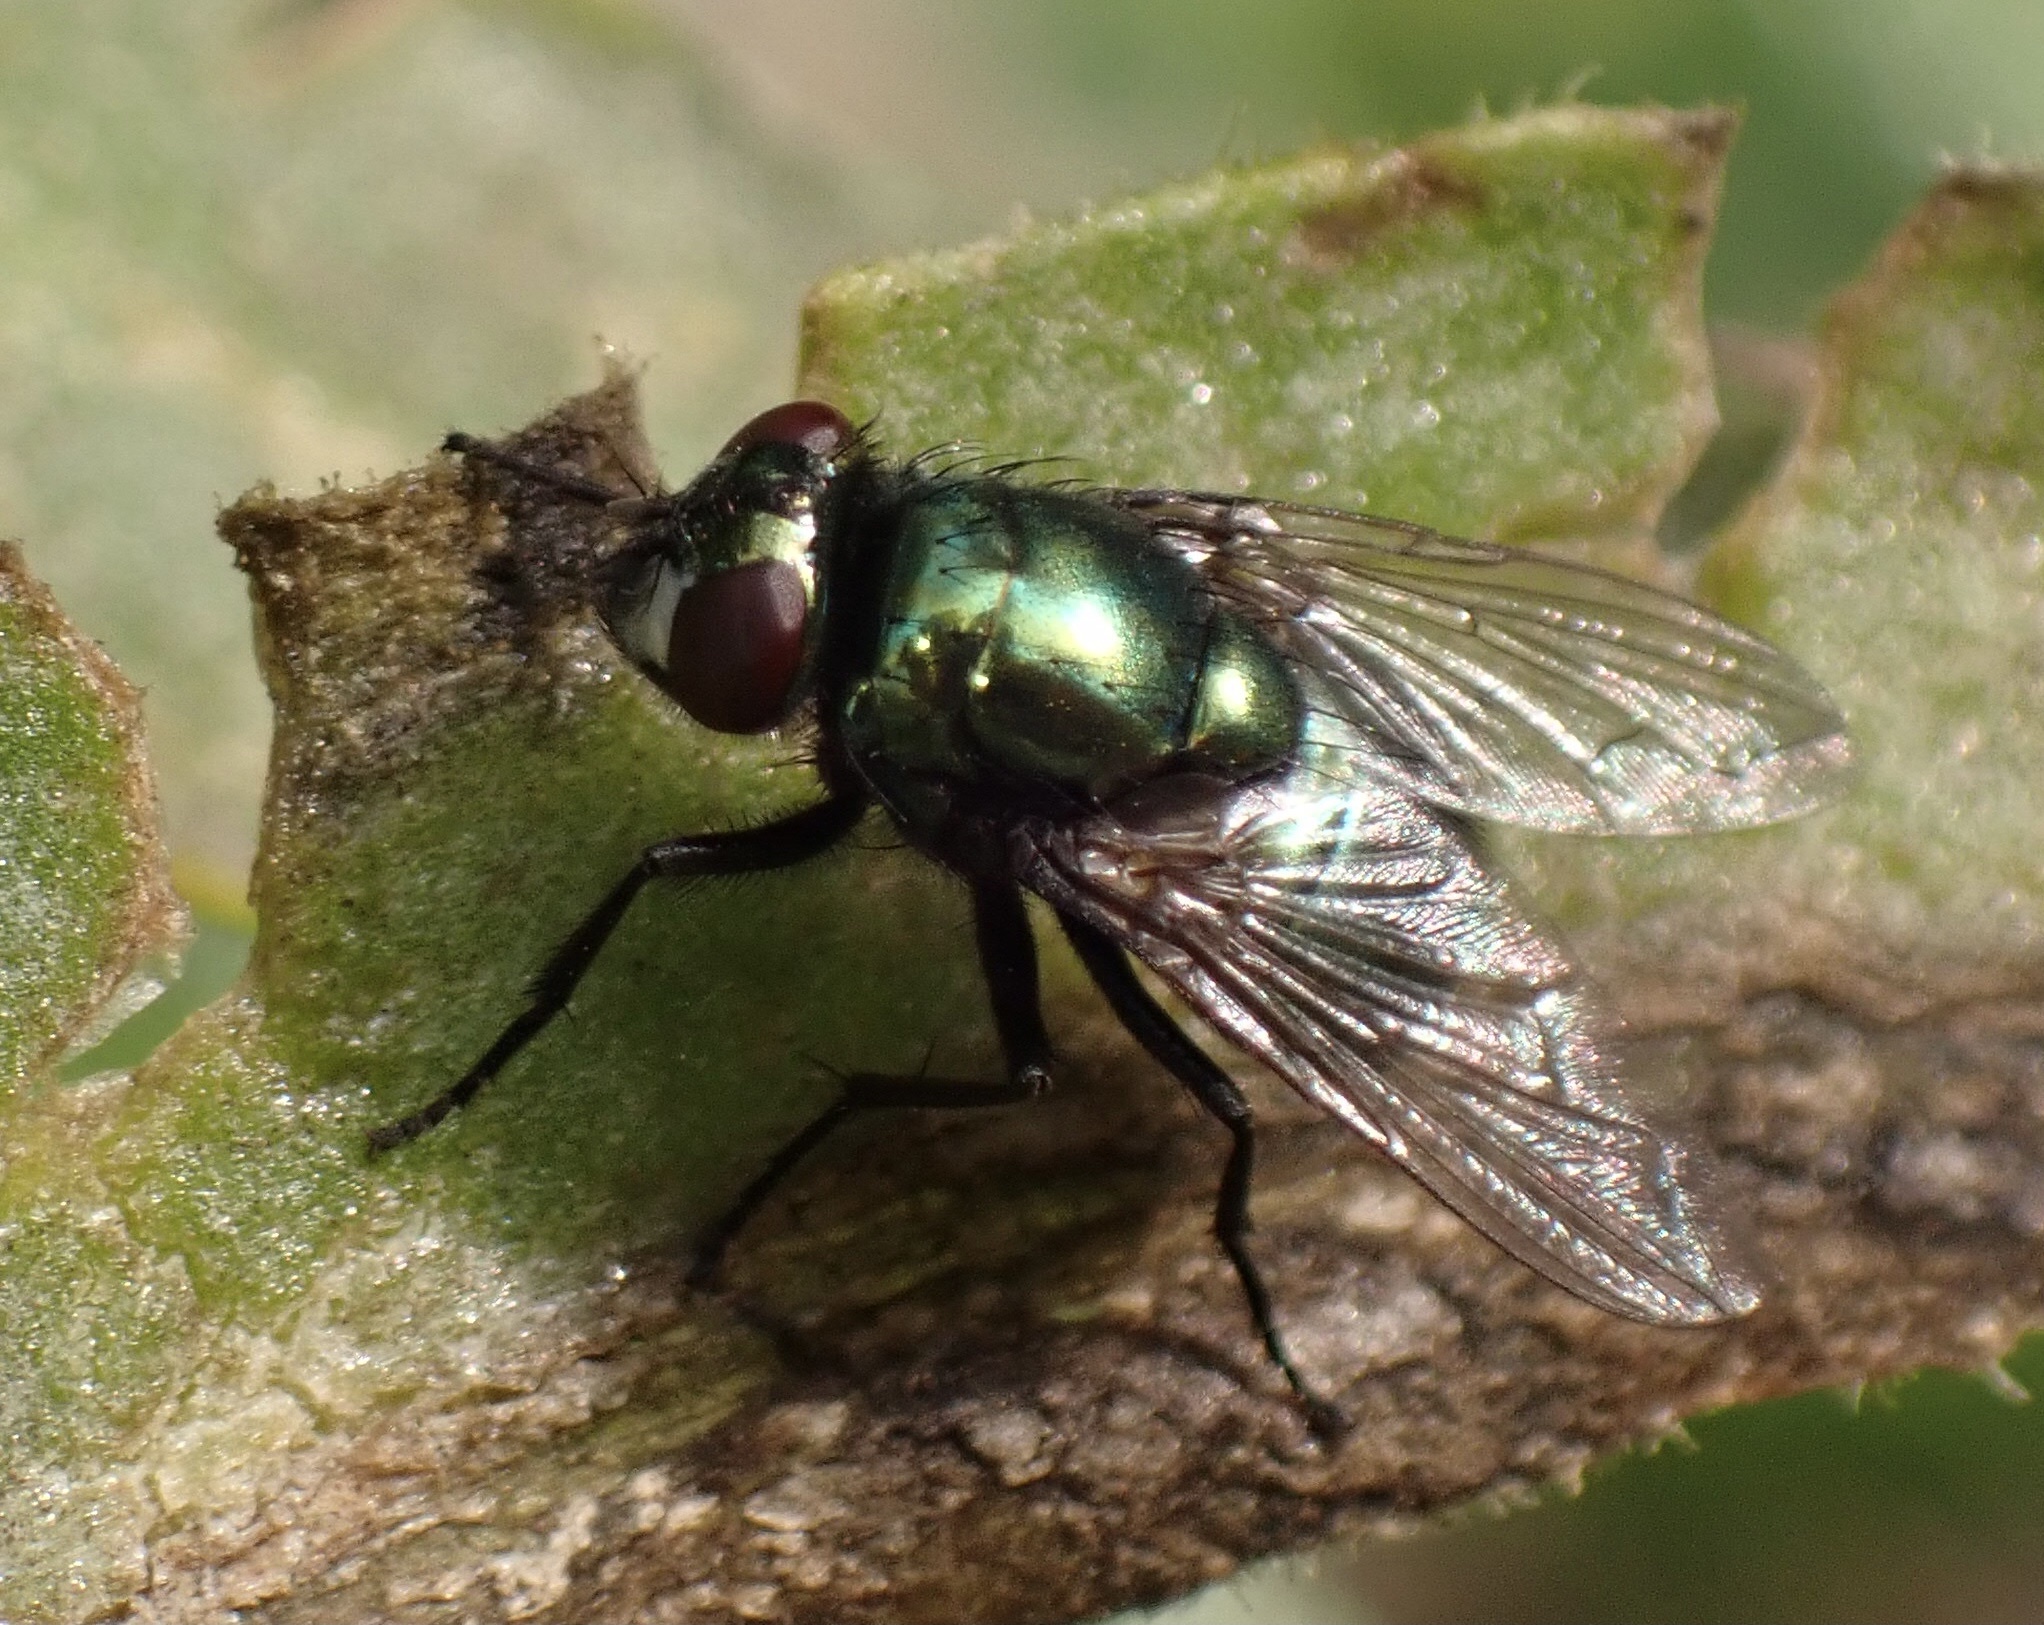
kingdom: Animalia
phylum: Arthropoda
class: Insecta
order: Diptera
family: Muscidae
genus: Neomyia
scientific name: Neomyia cornicina
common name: House fly
